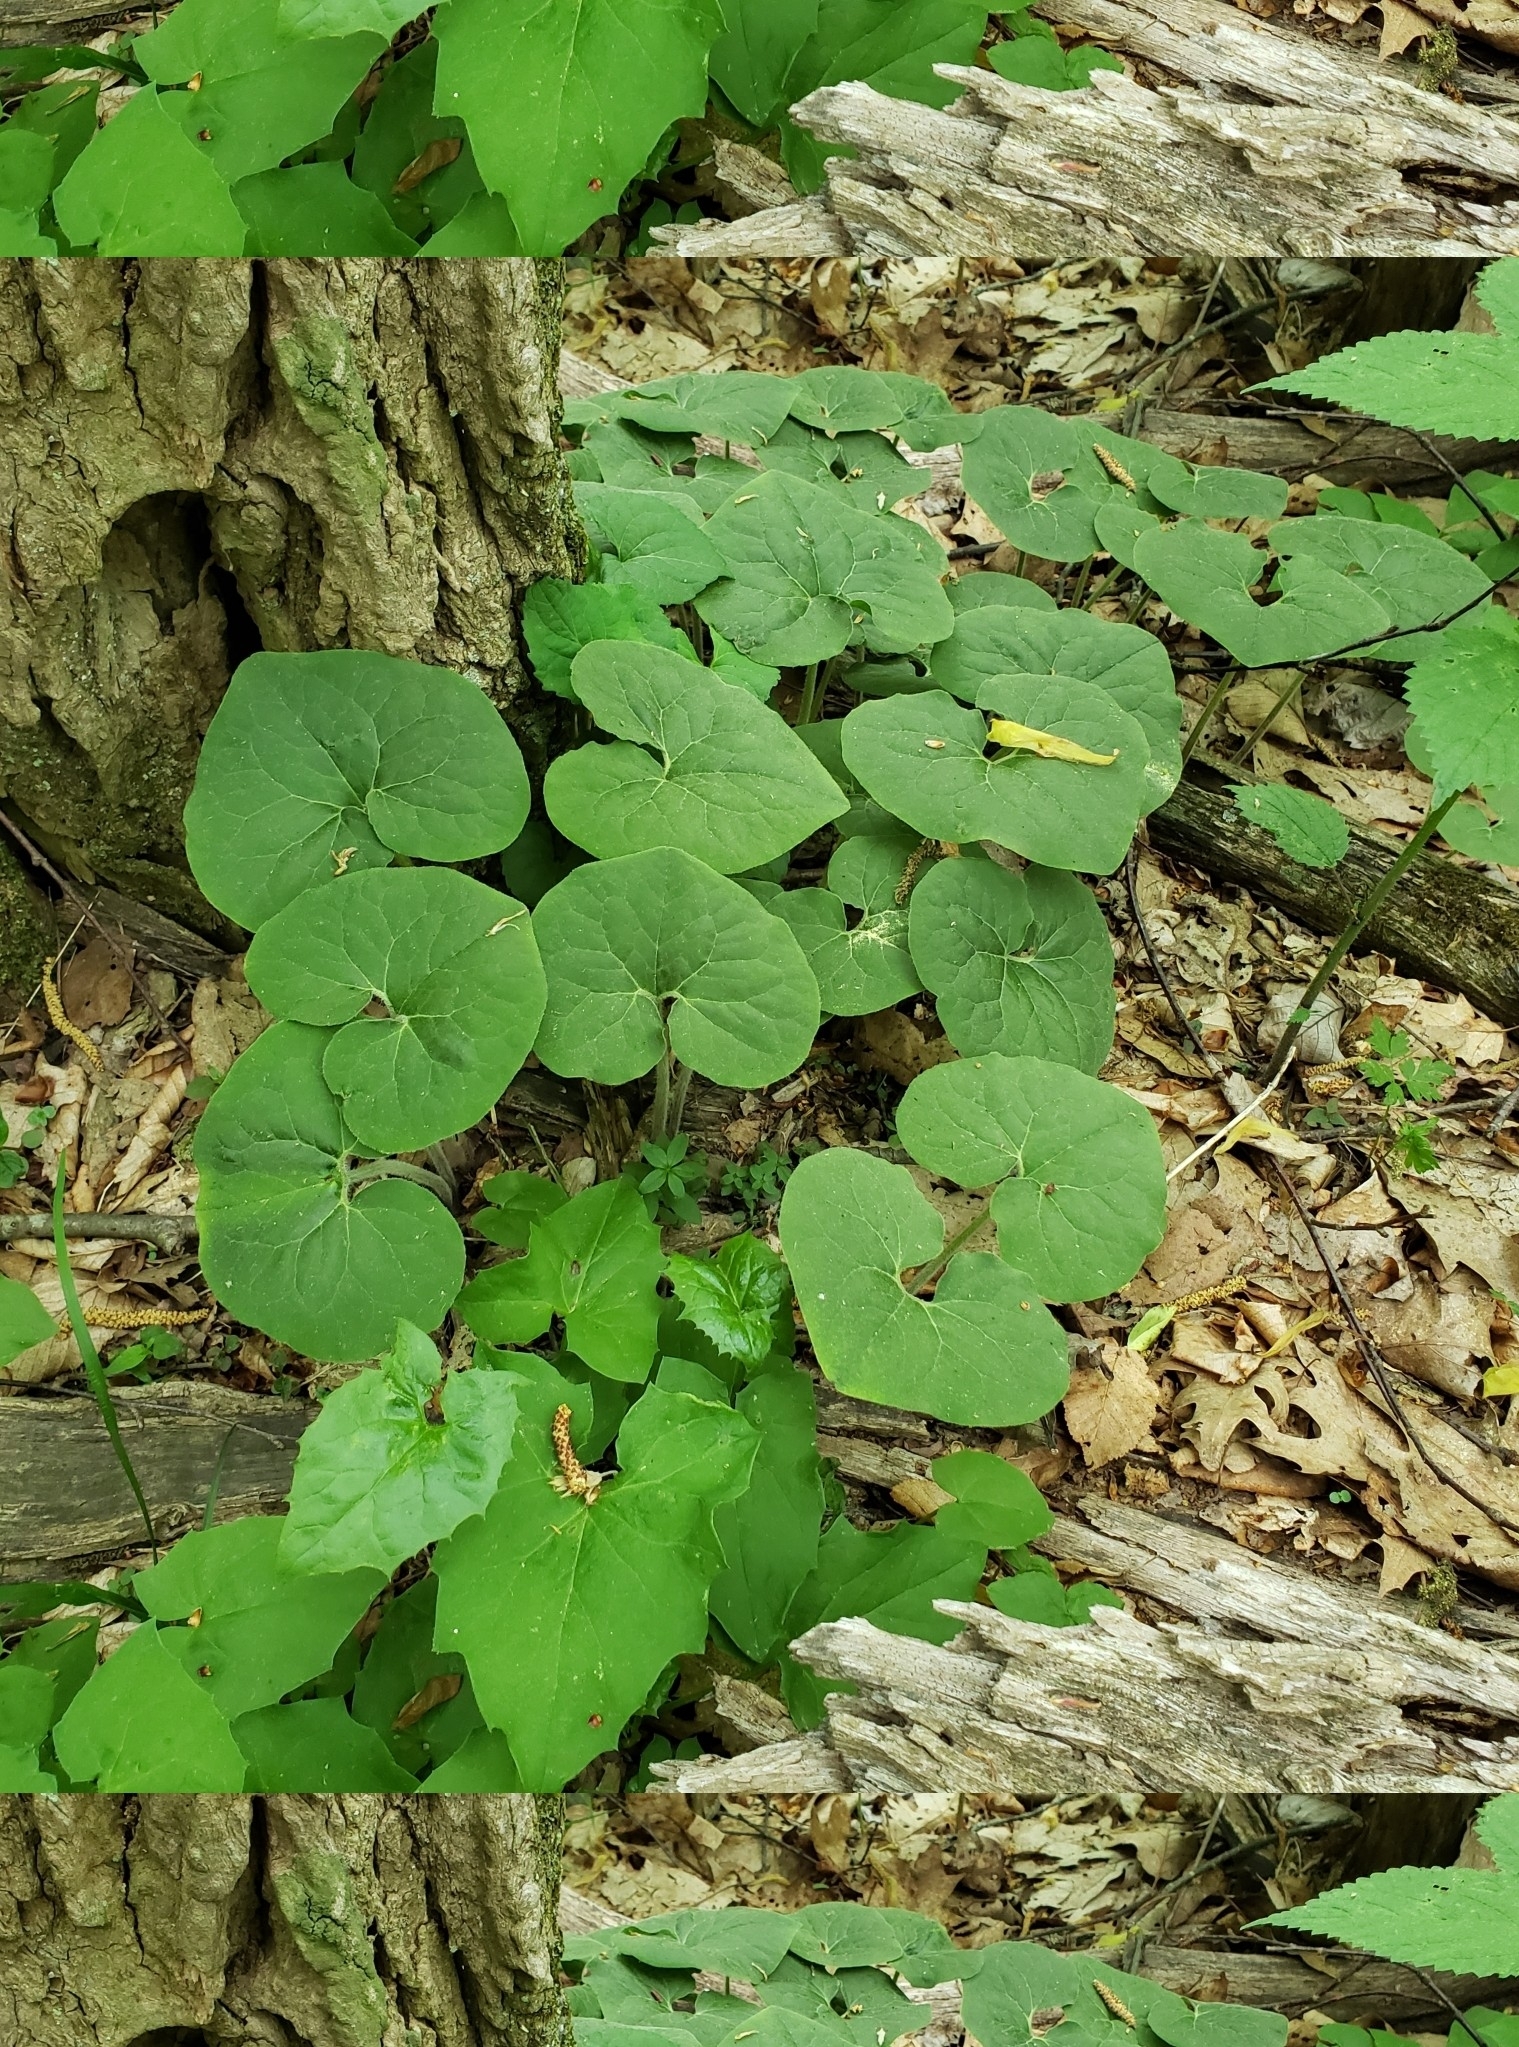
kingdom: Plantae
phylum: Tracheophyta
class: Magnoliopsida
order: Piperales
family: Aristolochiaceae
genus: Asarum
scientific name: Asarum canadense
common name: Wild ginger
